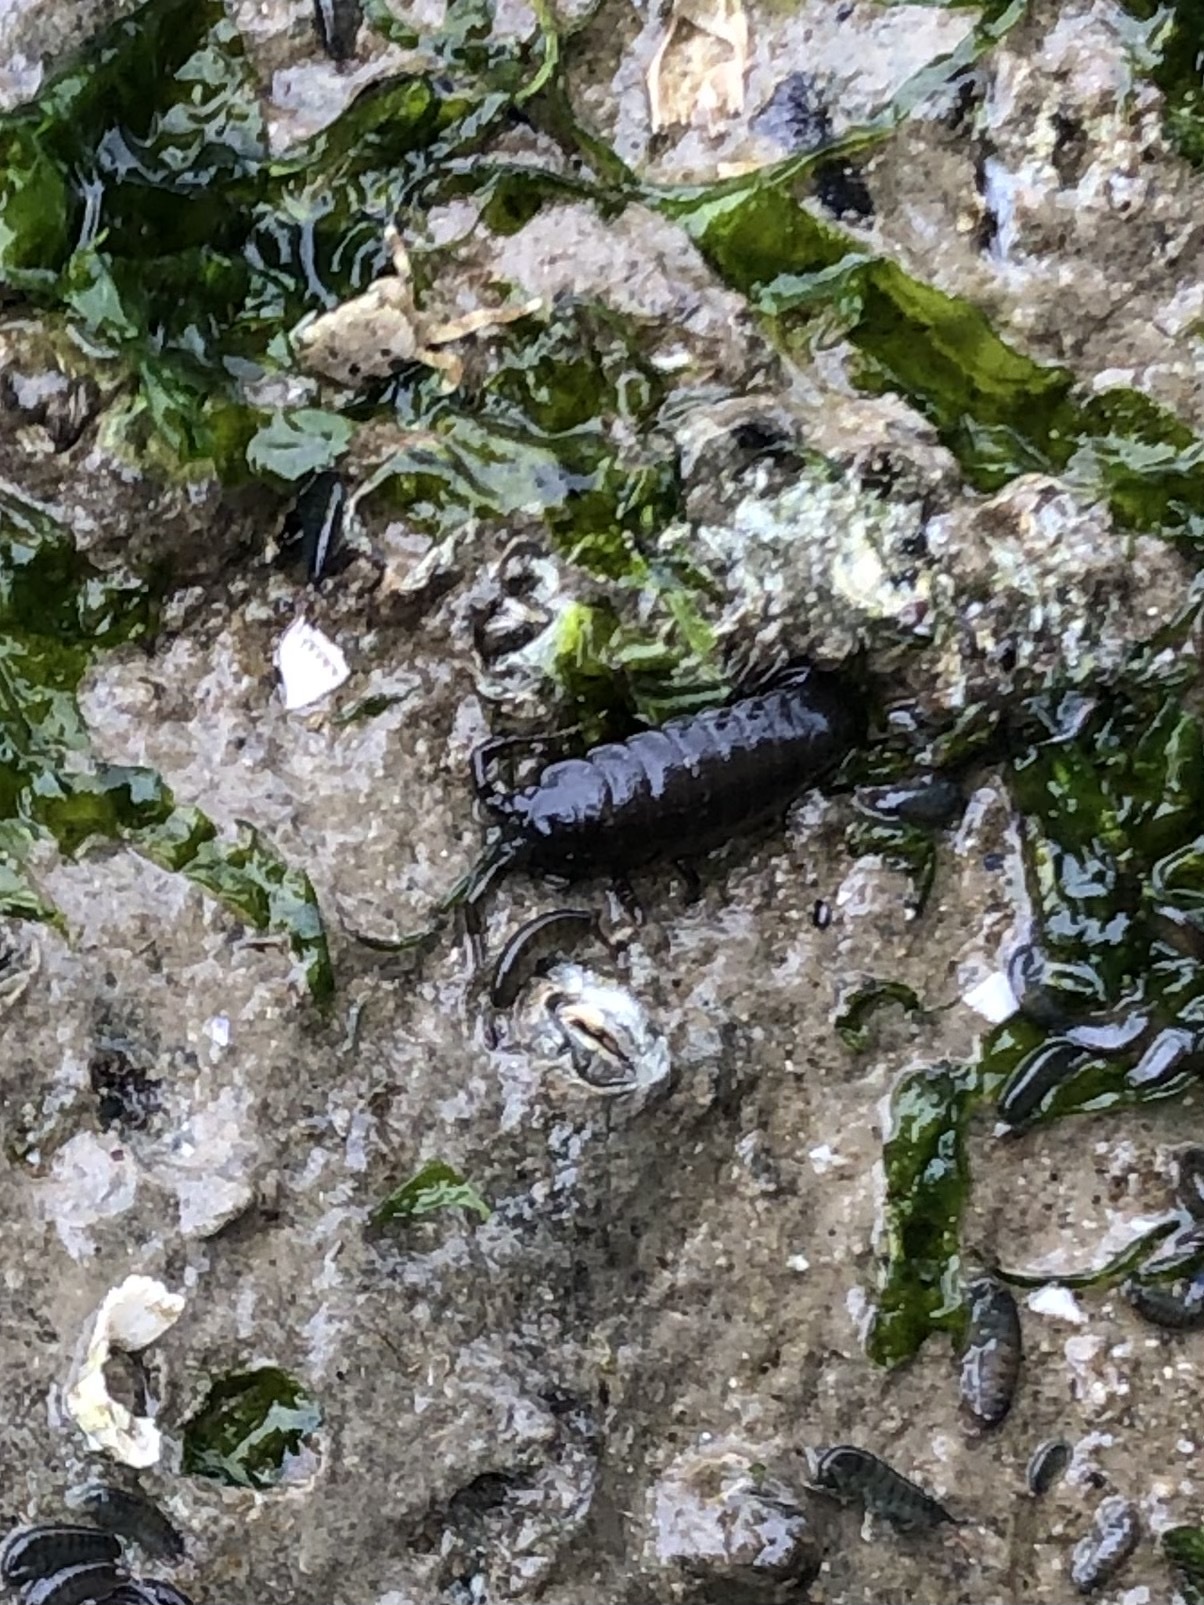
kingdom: Animalia
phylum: Arthropoda
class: Malacostraca
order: Isopoda
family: Idoteidae
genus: Pentidotea
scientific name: Pentidotea wosnesenskii
